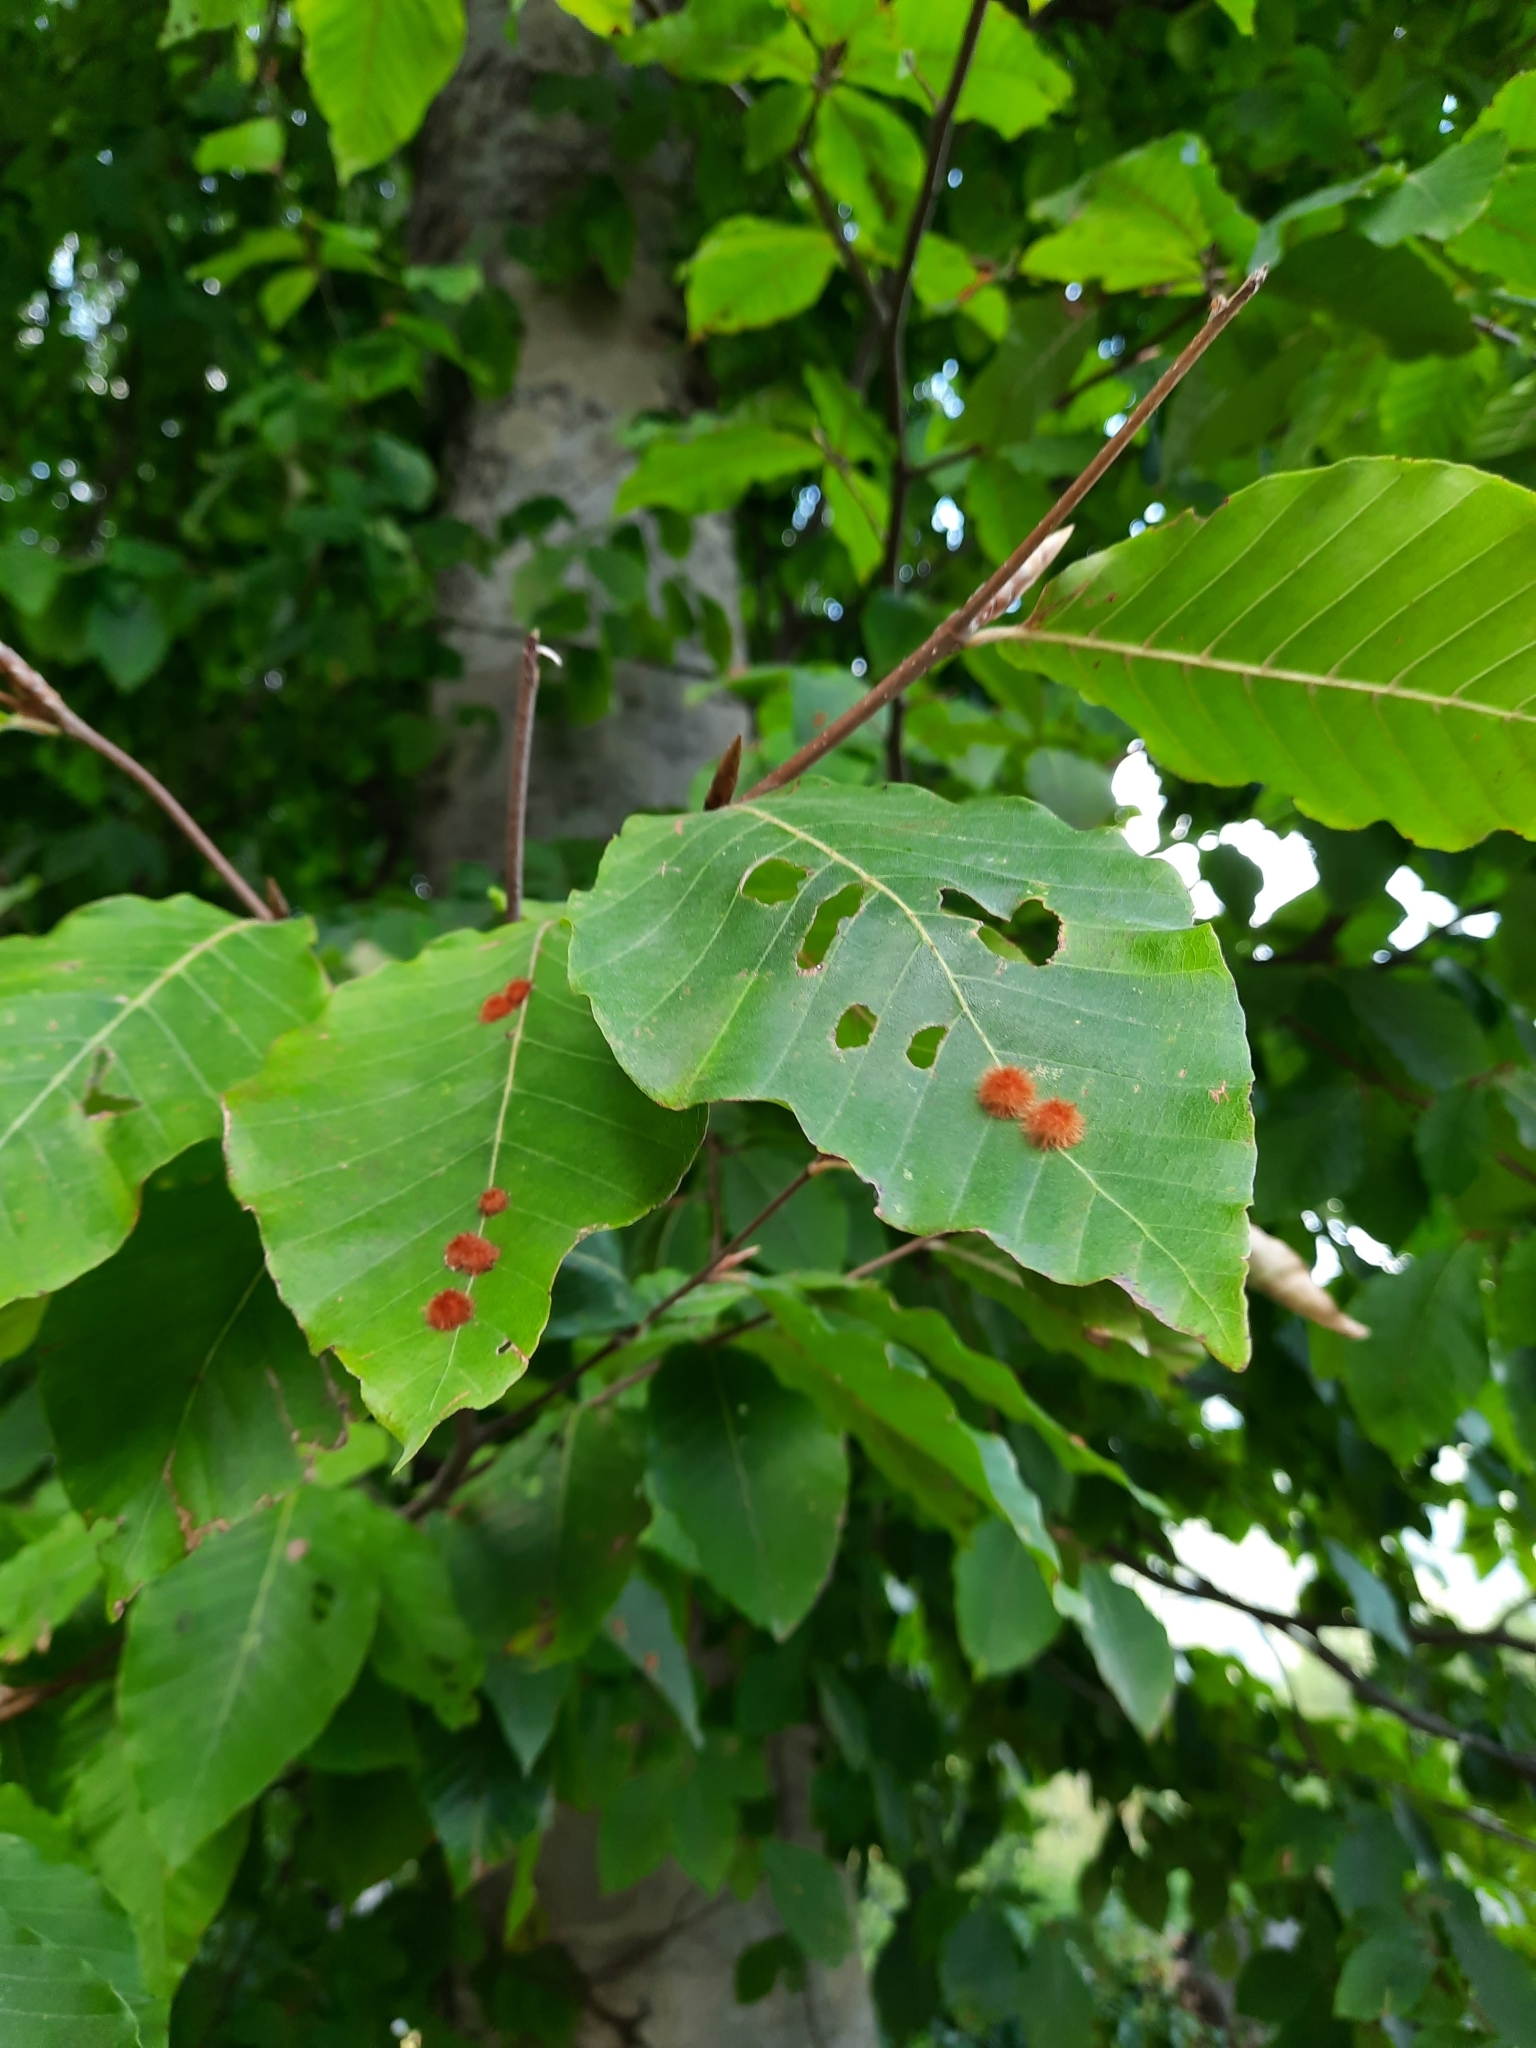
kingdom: Plantae
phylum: Tracheophyta
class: Magnoliopsida
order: Fagales
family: Fagaceae
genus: Fagus
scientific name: Fagus orientalis
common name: Oriental beech
